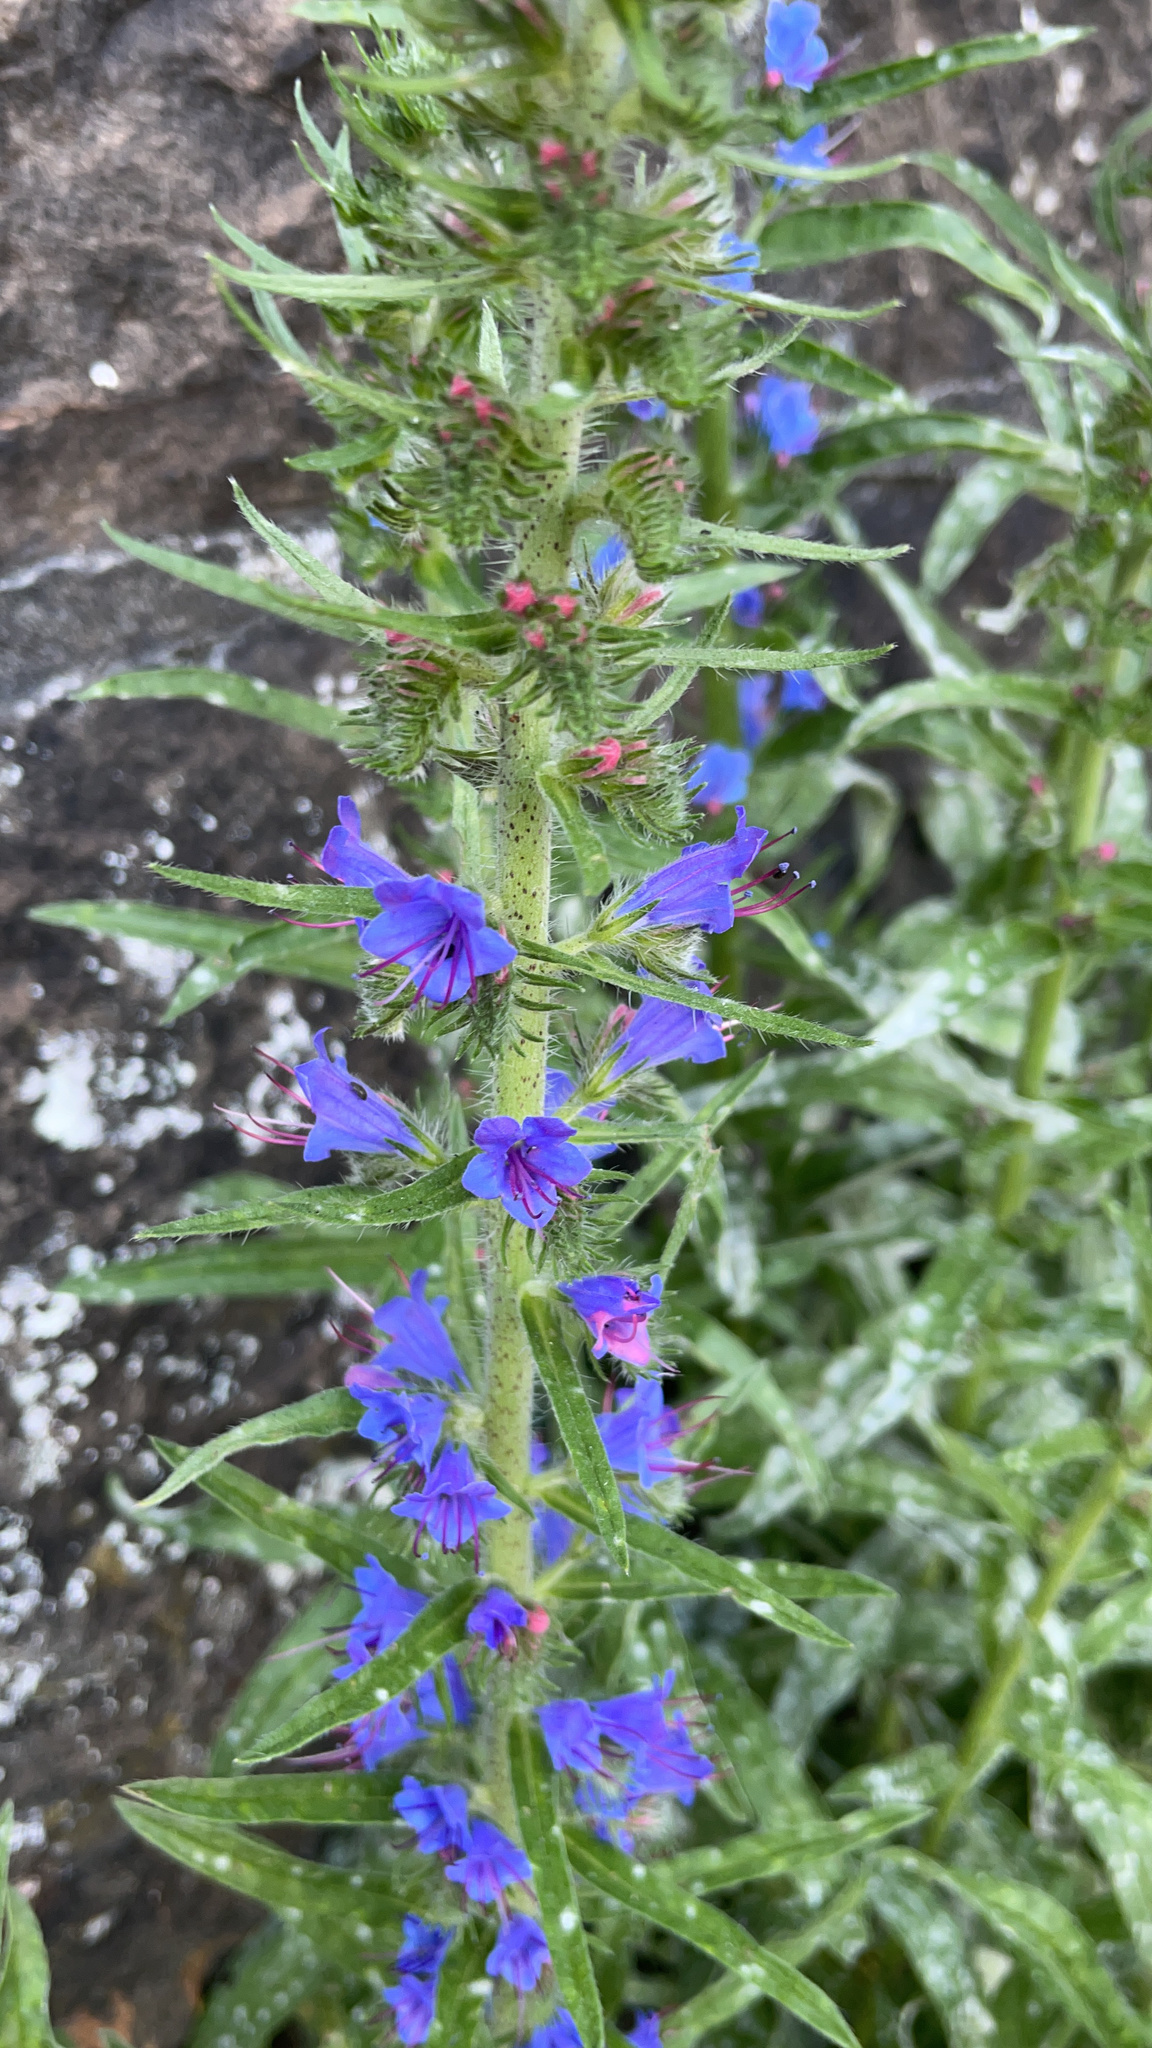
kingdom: Plantae
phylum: Tracheophyta
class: Magnoliopsida
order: Boraginales
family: Boraginaceae
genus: Echium
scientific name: Echium vulgare
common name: Common viper's bugloss
